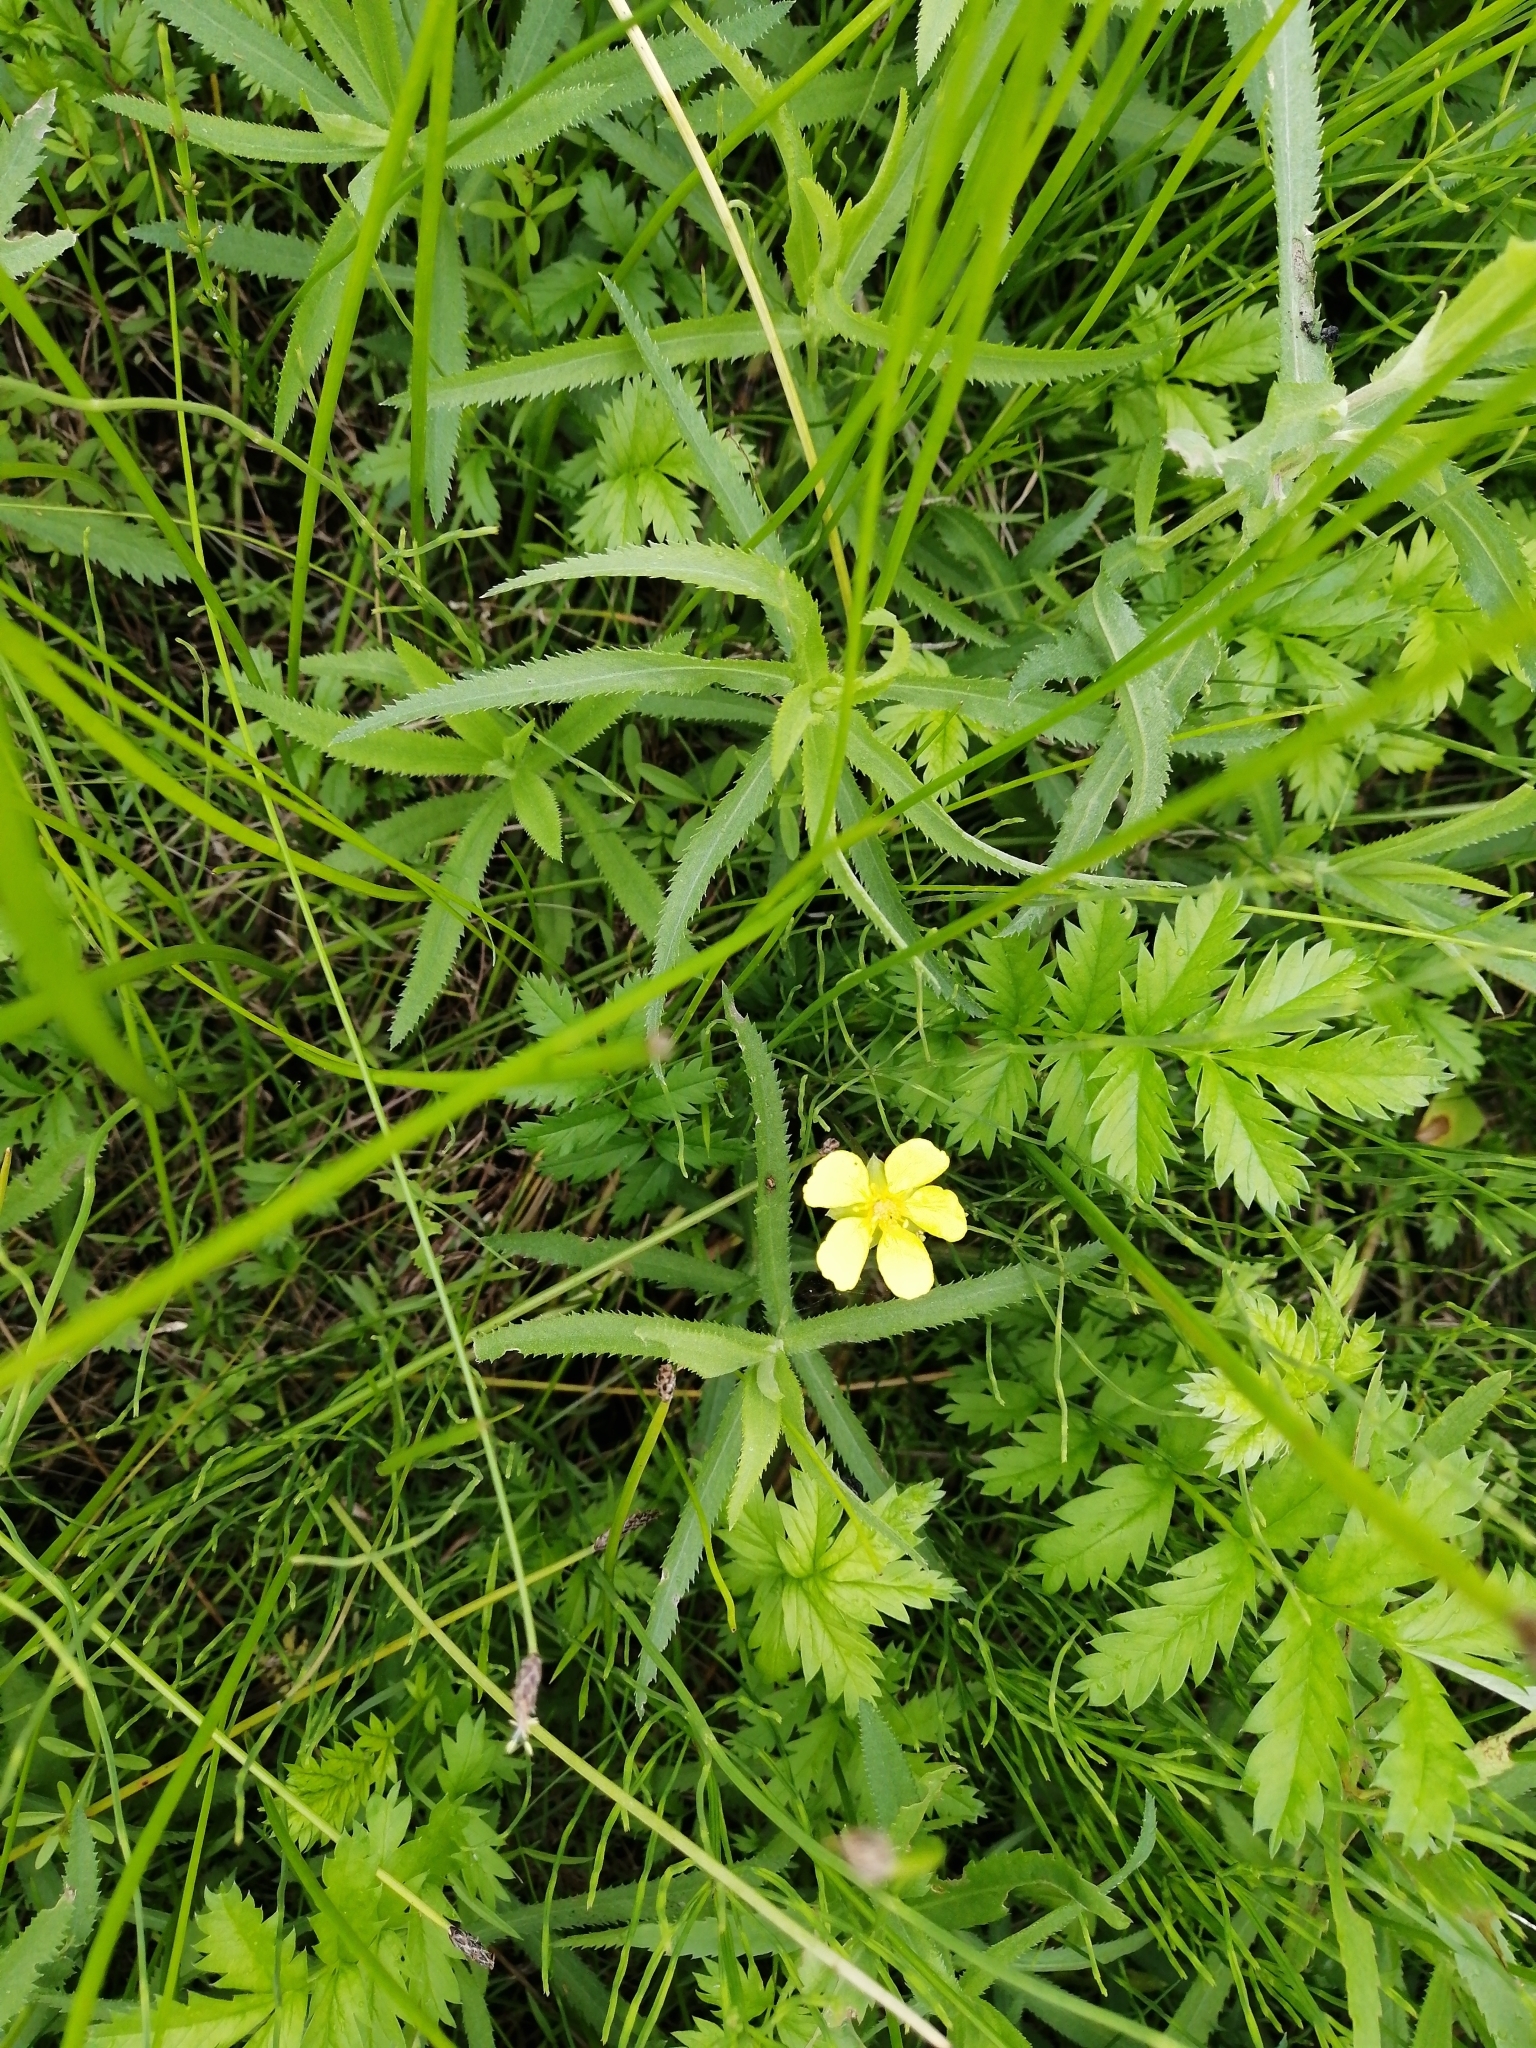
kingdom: Plantae
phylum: Tracheophyta
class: Magnoliopsida
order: Rosales
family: Rosaceae
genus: Argentina
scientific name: Argentina anserina
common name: Common silverweed
